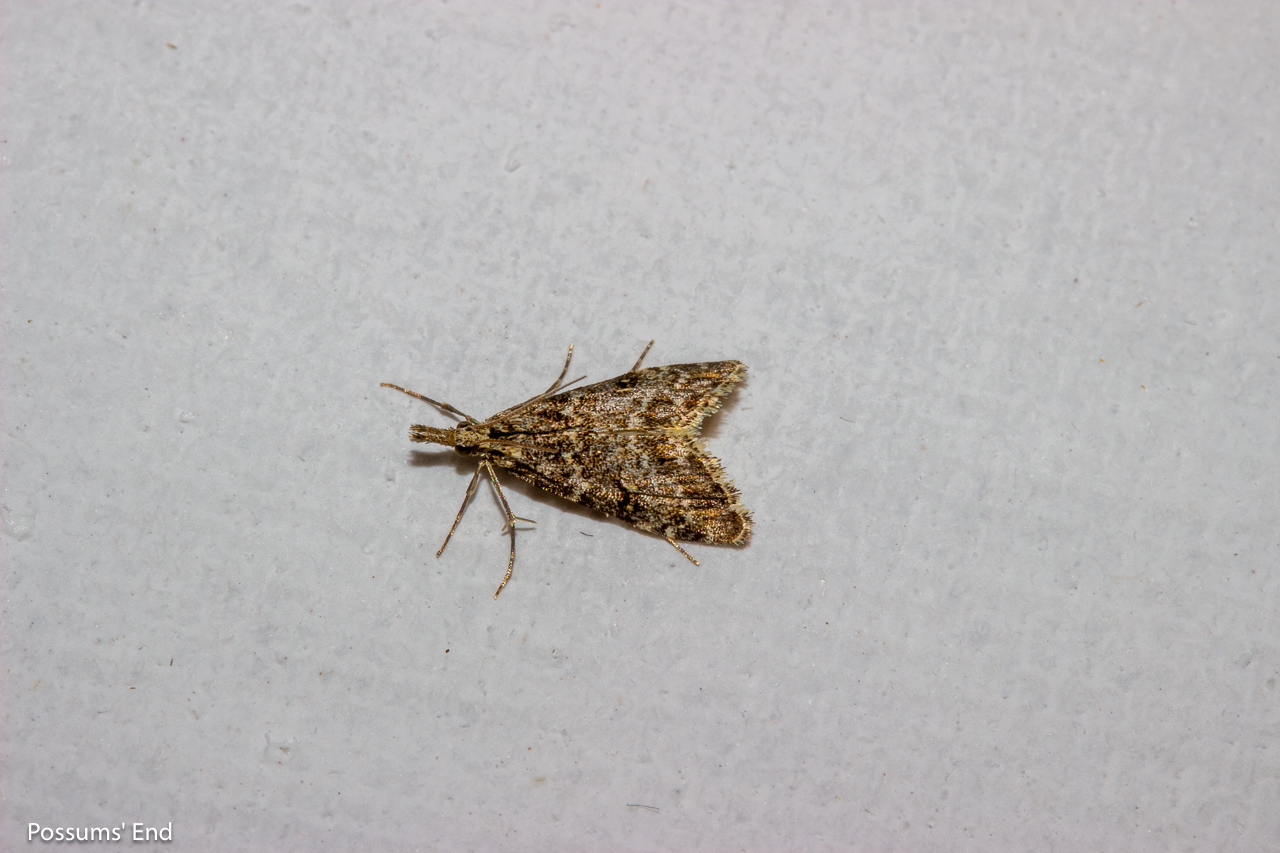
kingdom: Animalia
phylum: Arthropoda
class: Insecta
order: Lepidoptera
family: Crambidae
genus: Glaucocharis
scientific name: Glaucocharis elaina
